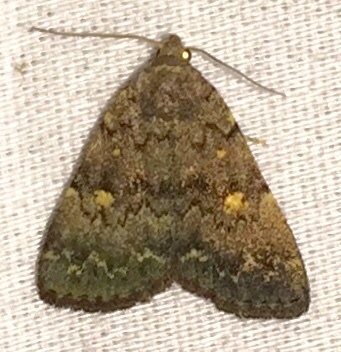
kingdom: Animalia
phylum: Arthropoda
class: Insecta
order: Lepidoptera
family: Erebidae
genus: Idia
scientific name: Idia aemula
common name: Common idia moth
